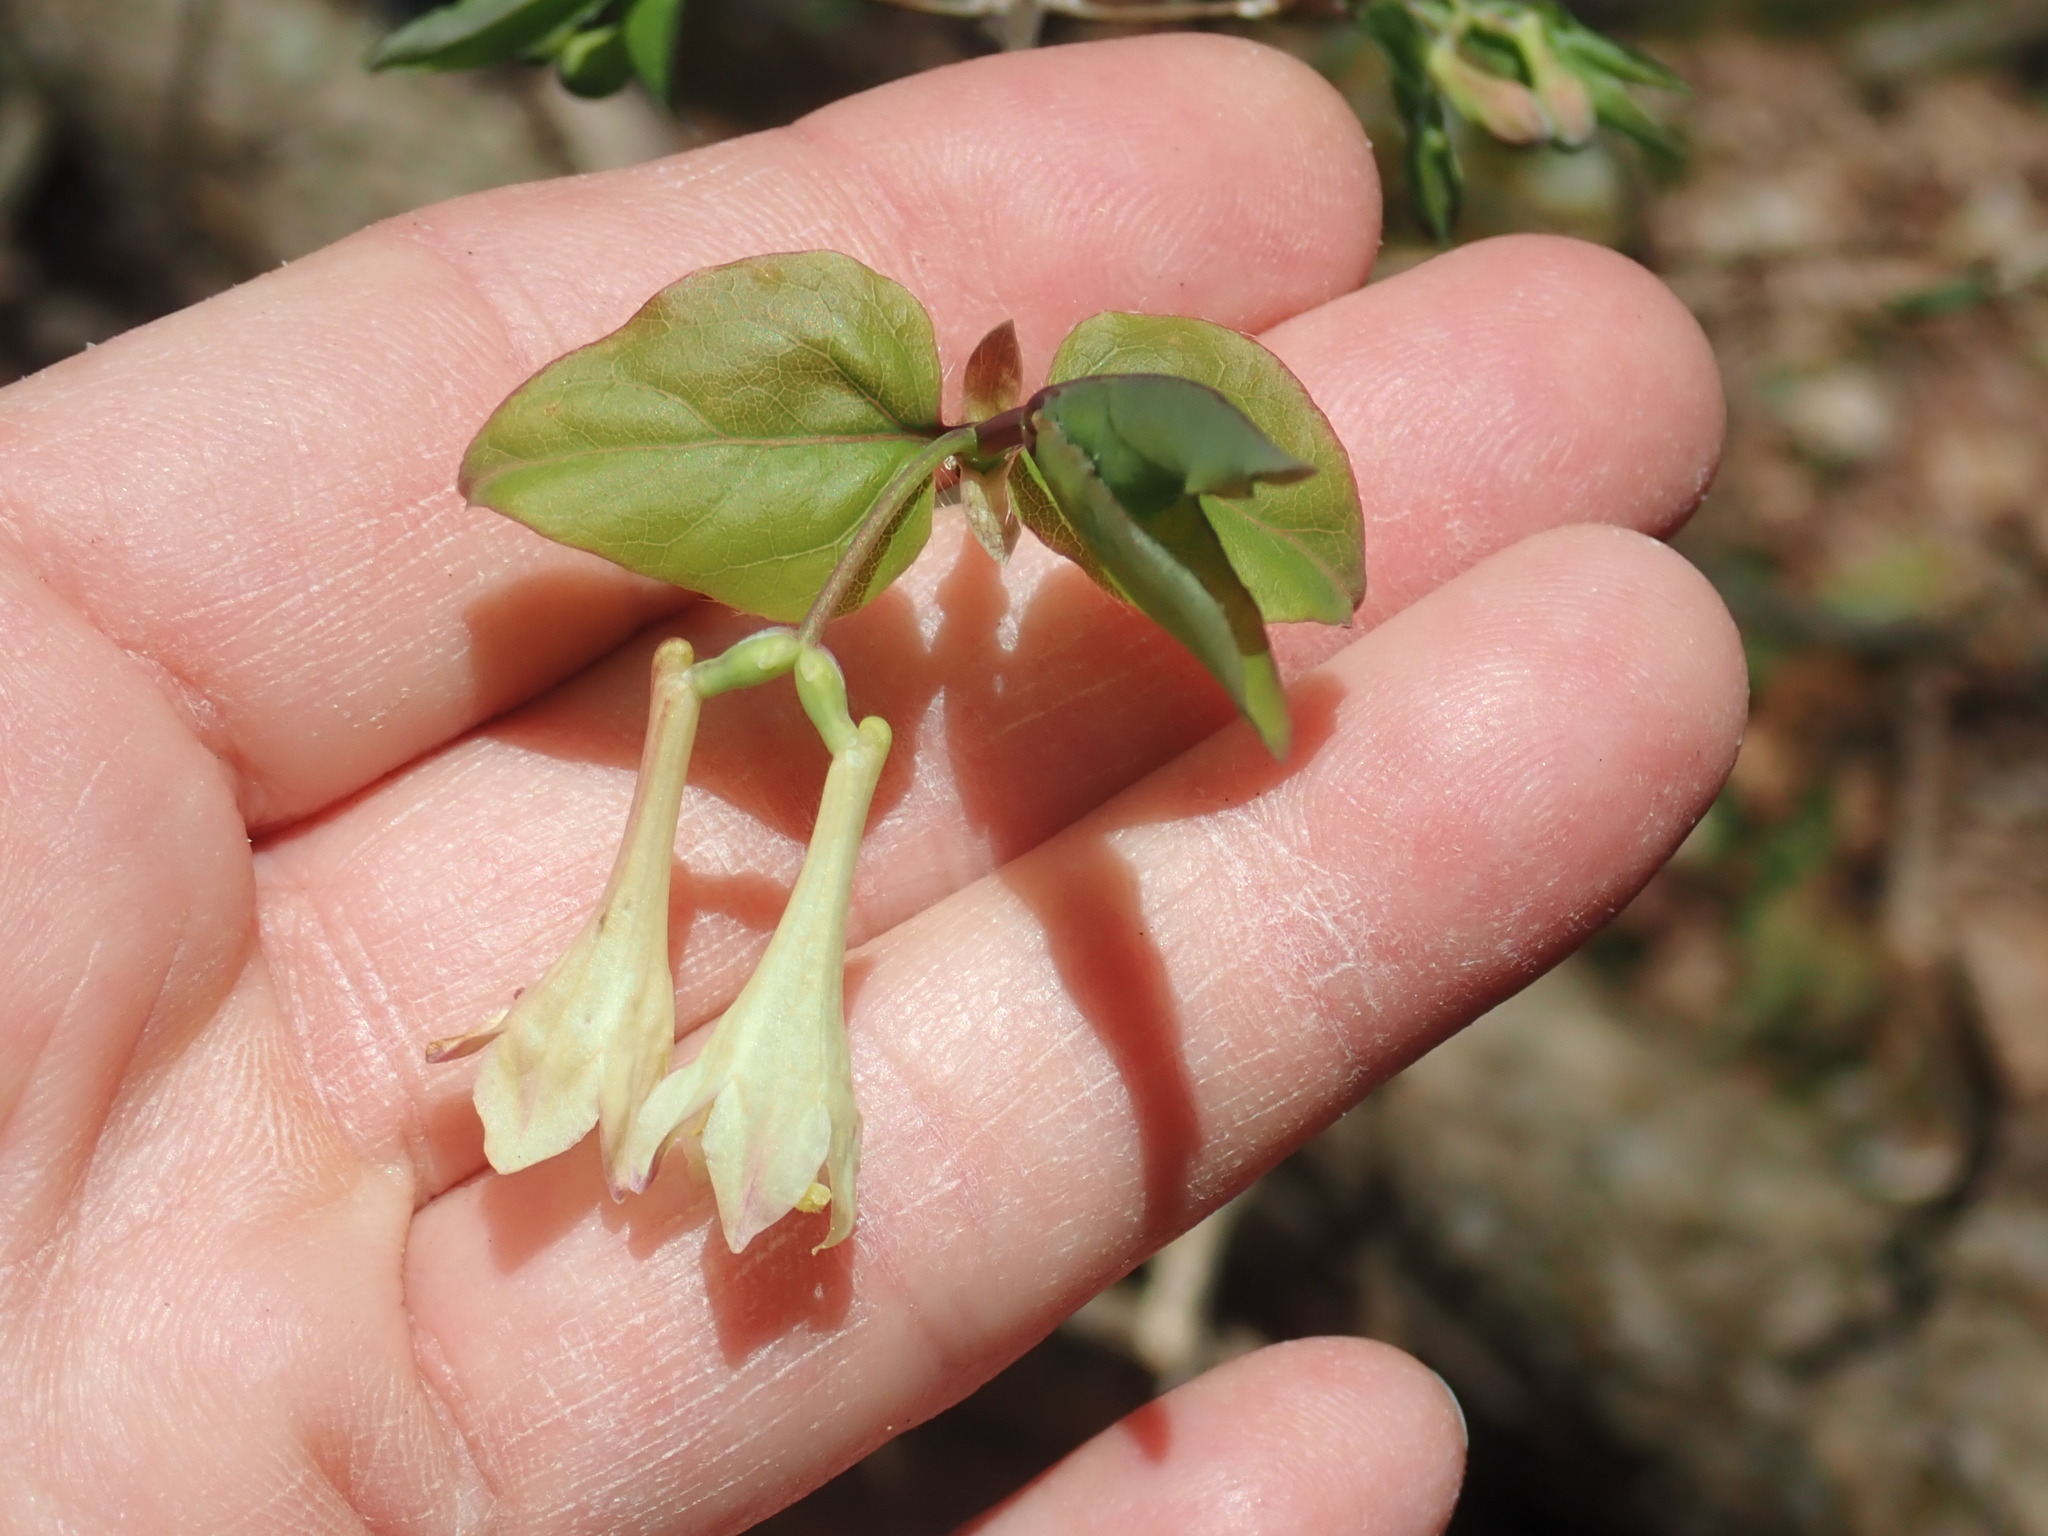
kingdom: Plantae
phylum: Tracheophyta
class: Magnoliopsida
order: Dipsacales
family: Caprifoliaceae
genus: Lonicera
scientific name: Lonicera canadensis
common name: American fly-honeysuckle
